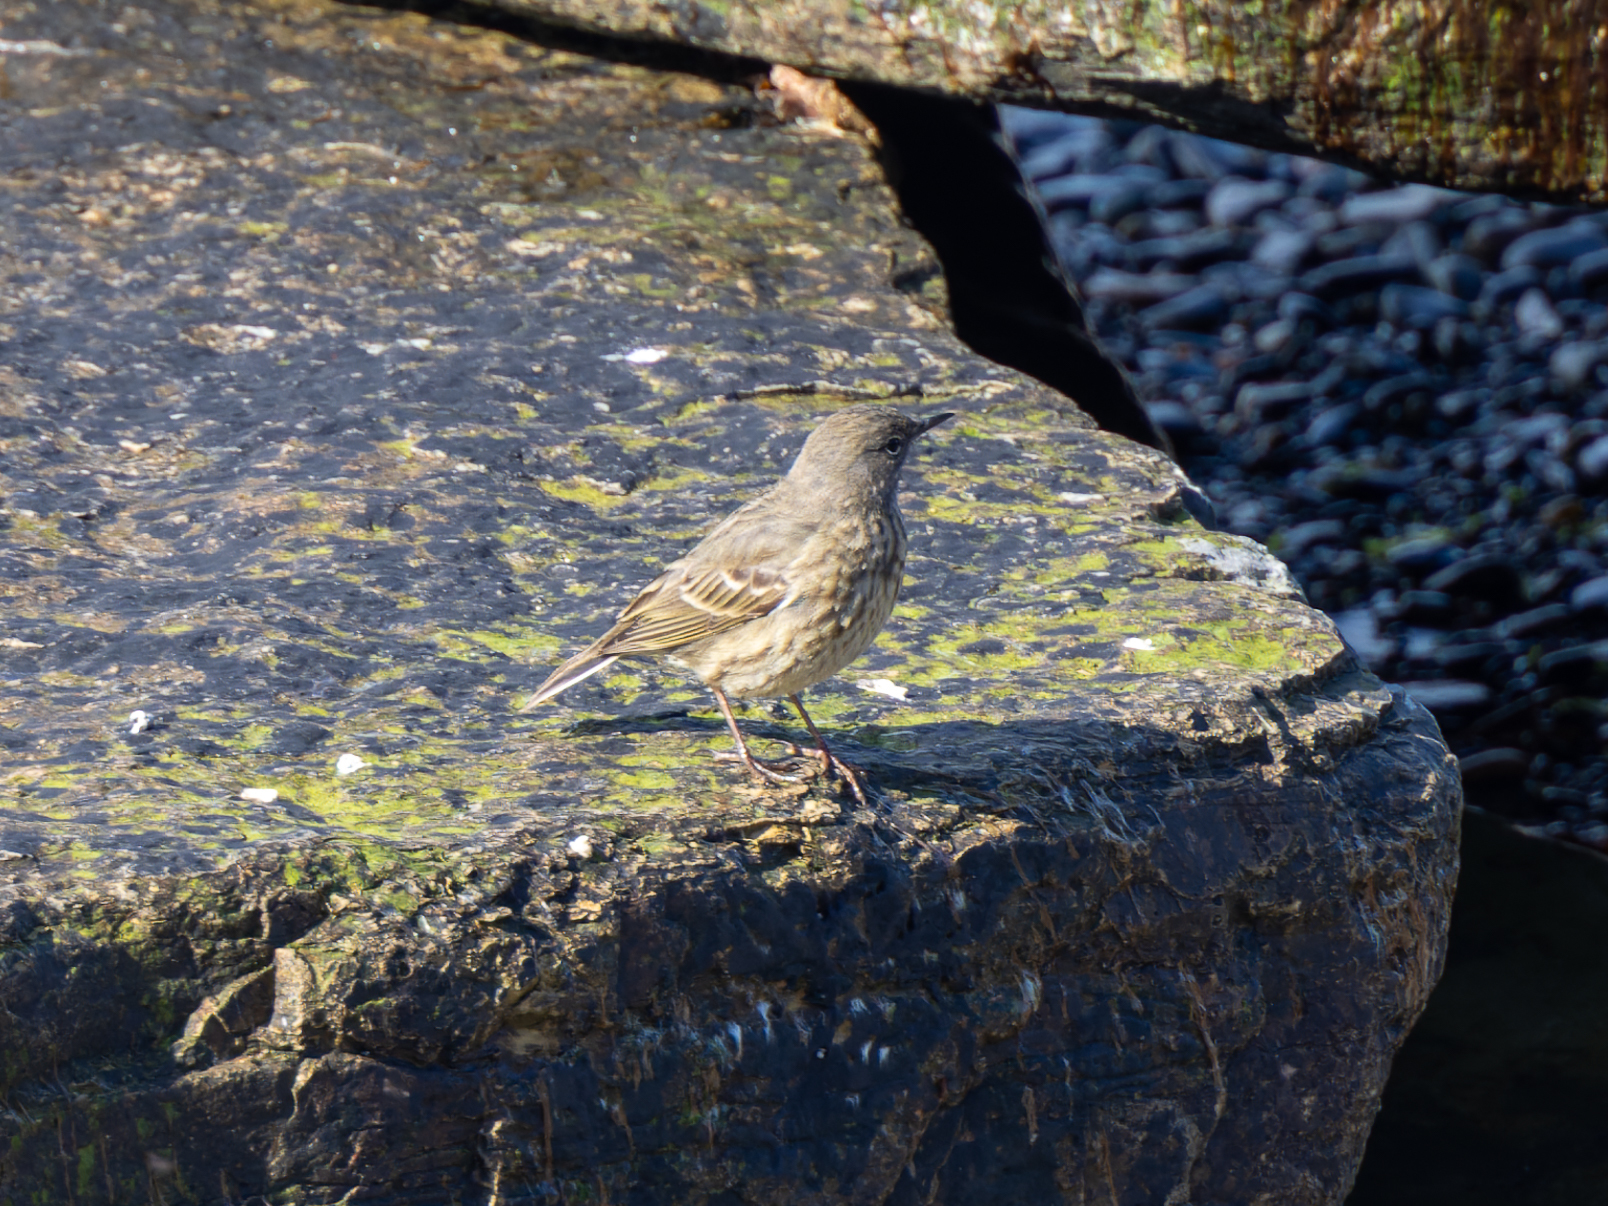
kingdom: Animalia
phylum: Chordata
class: Aves
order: Passeriformes
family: Motacillidae
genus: Anthus
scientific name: Anthus petrosus
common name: Eurasian rock pipit
